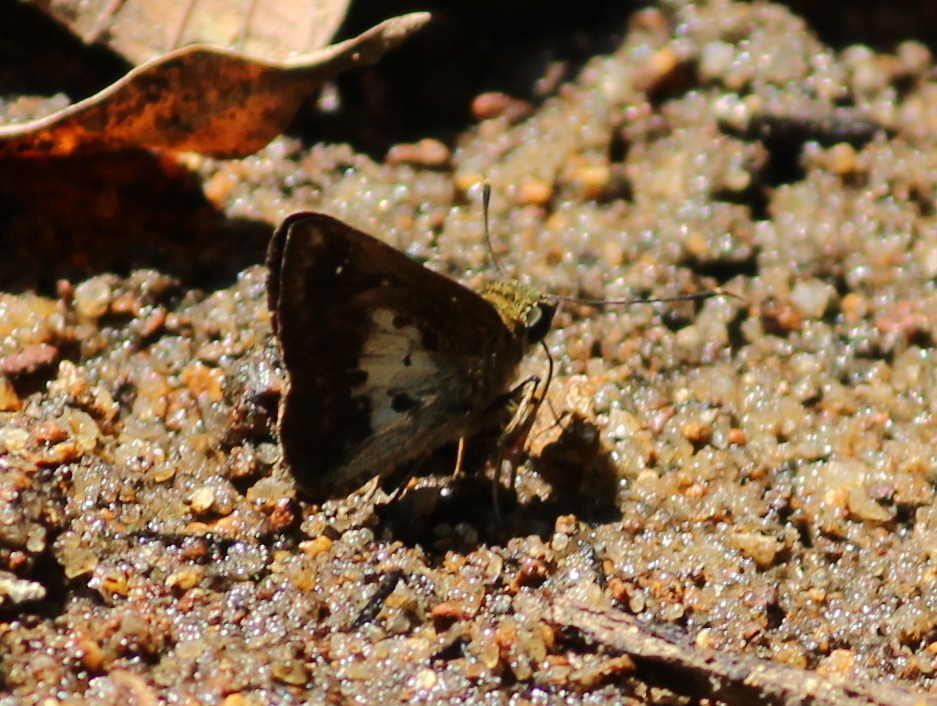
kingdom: Animalia
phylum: Arthropoda
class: Insecta
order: Lepidoptera
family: Hesperiidae
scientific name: Hesperiidae
